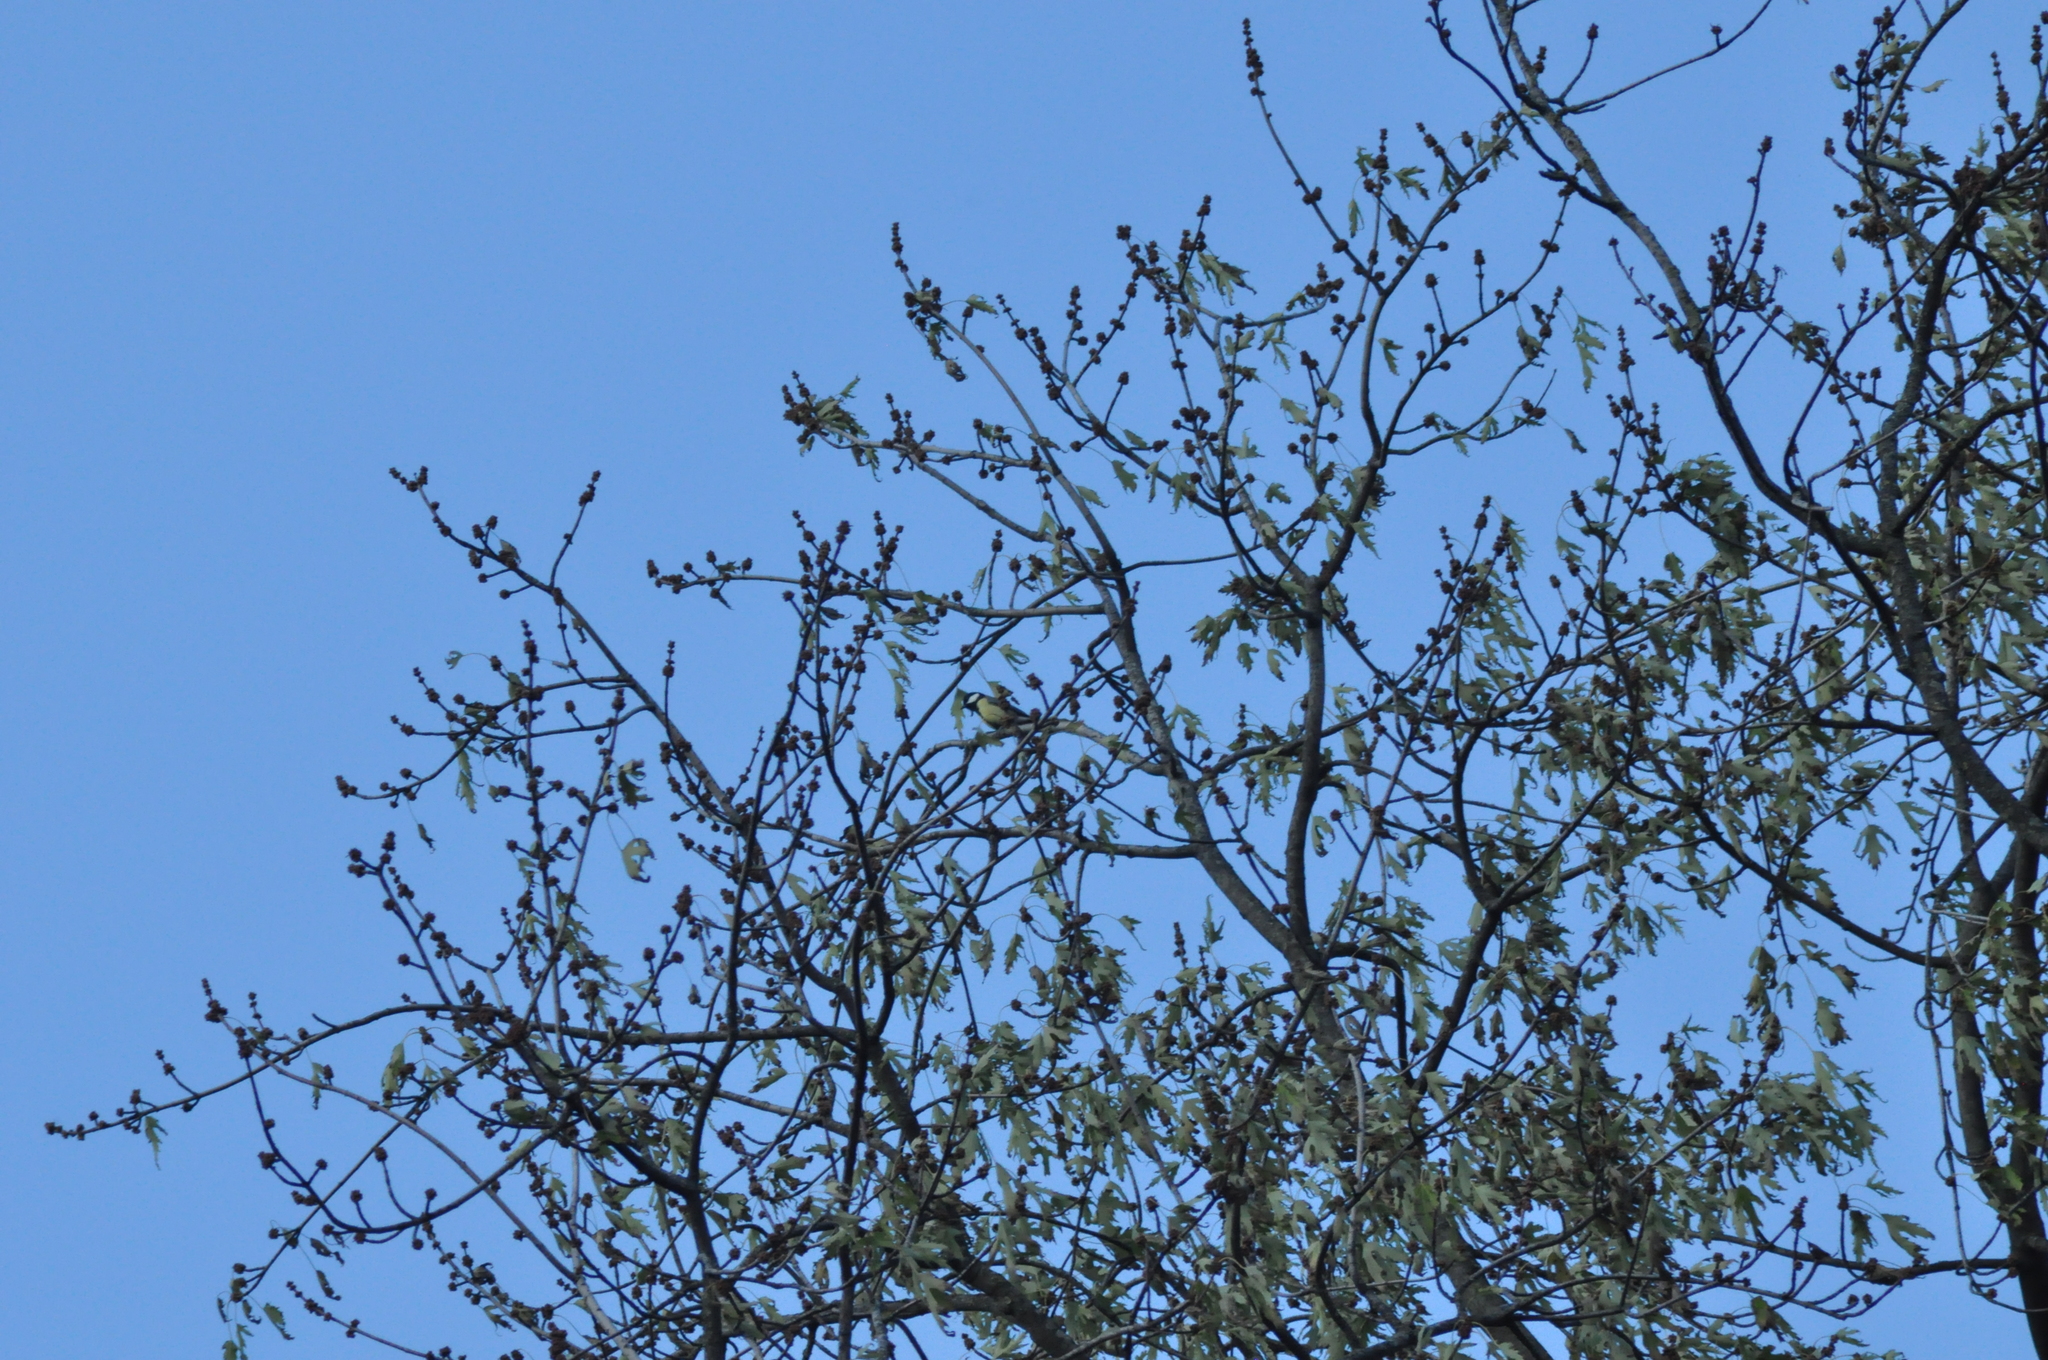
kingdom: Animalia
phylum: Chordata
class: Aves
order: Passeriformes
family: Paridae
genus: Parus
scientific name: Parus major
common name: Great tit
